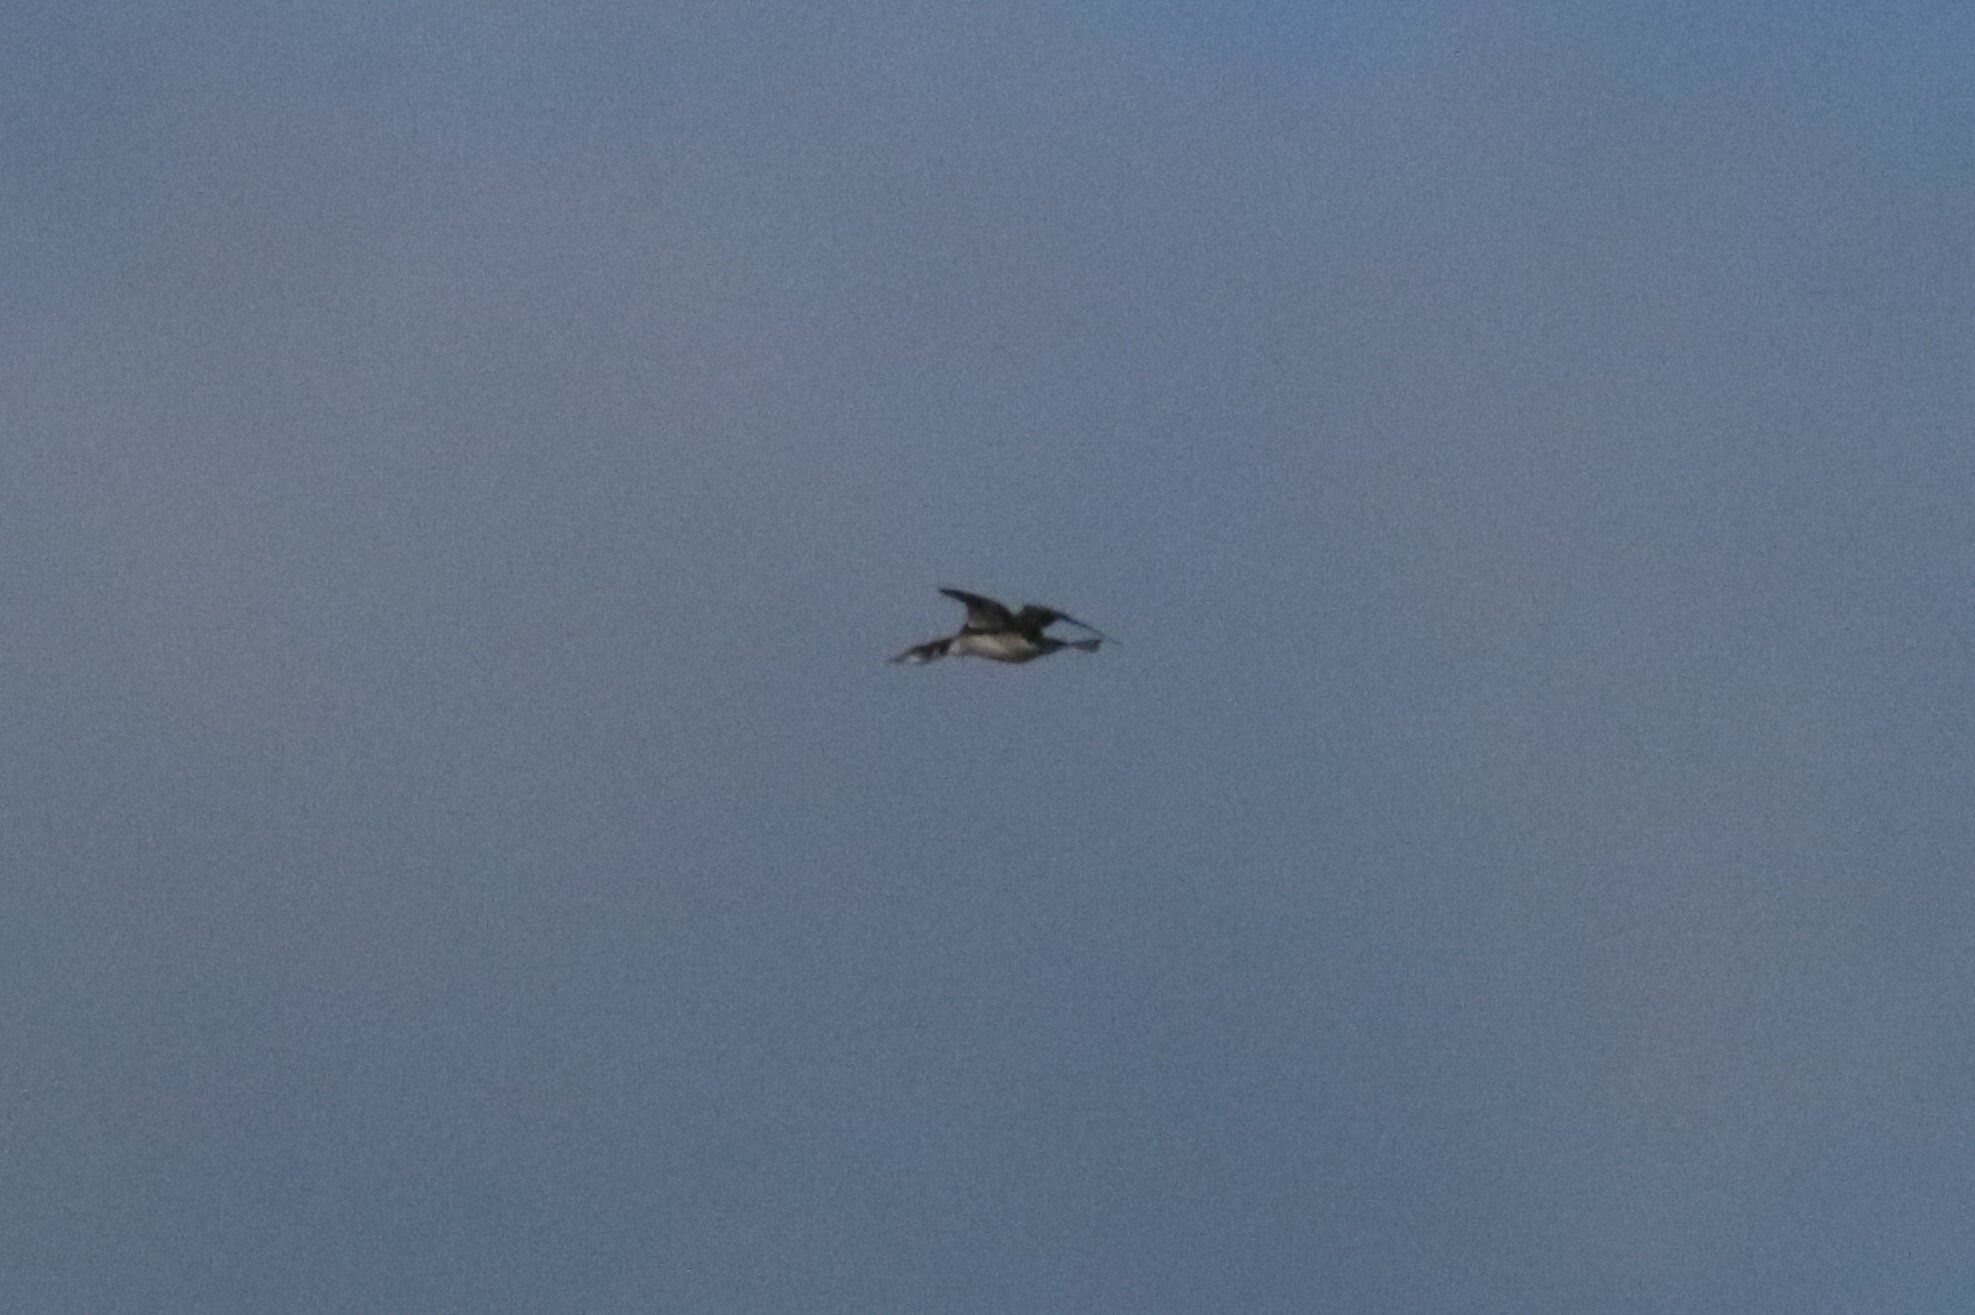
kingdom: Animalia
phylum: Chordata
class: Aves
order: Gaviiformes
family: Gaviidae
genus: Gavia
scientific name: Gavia immer
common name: Common loon
